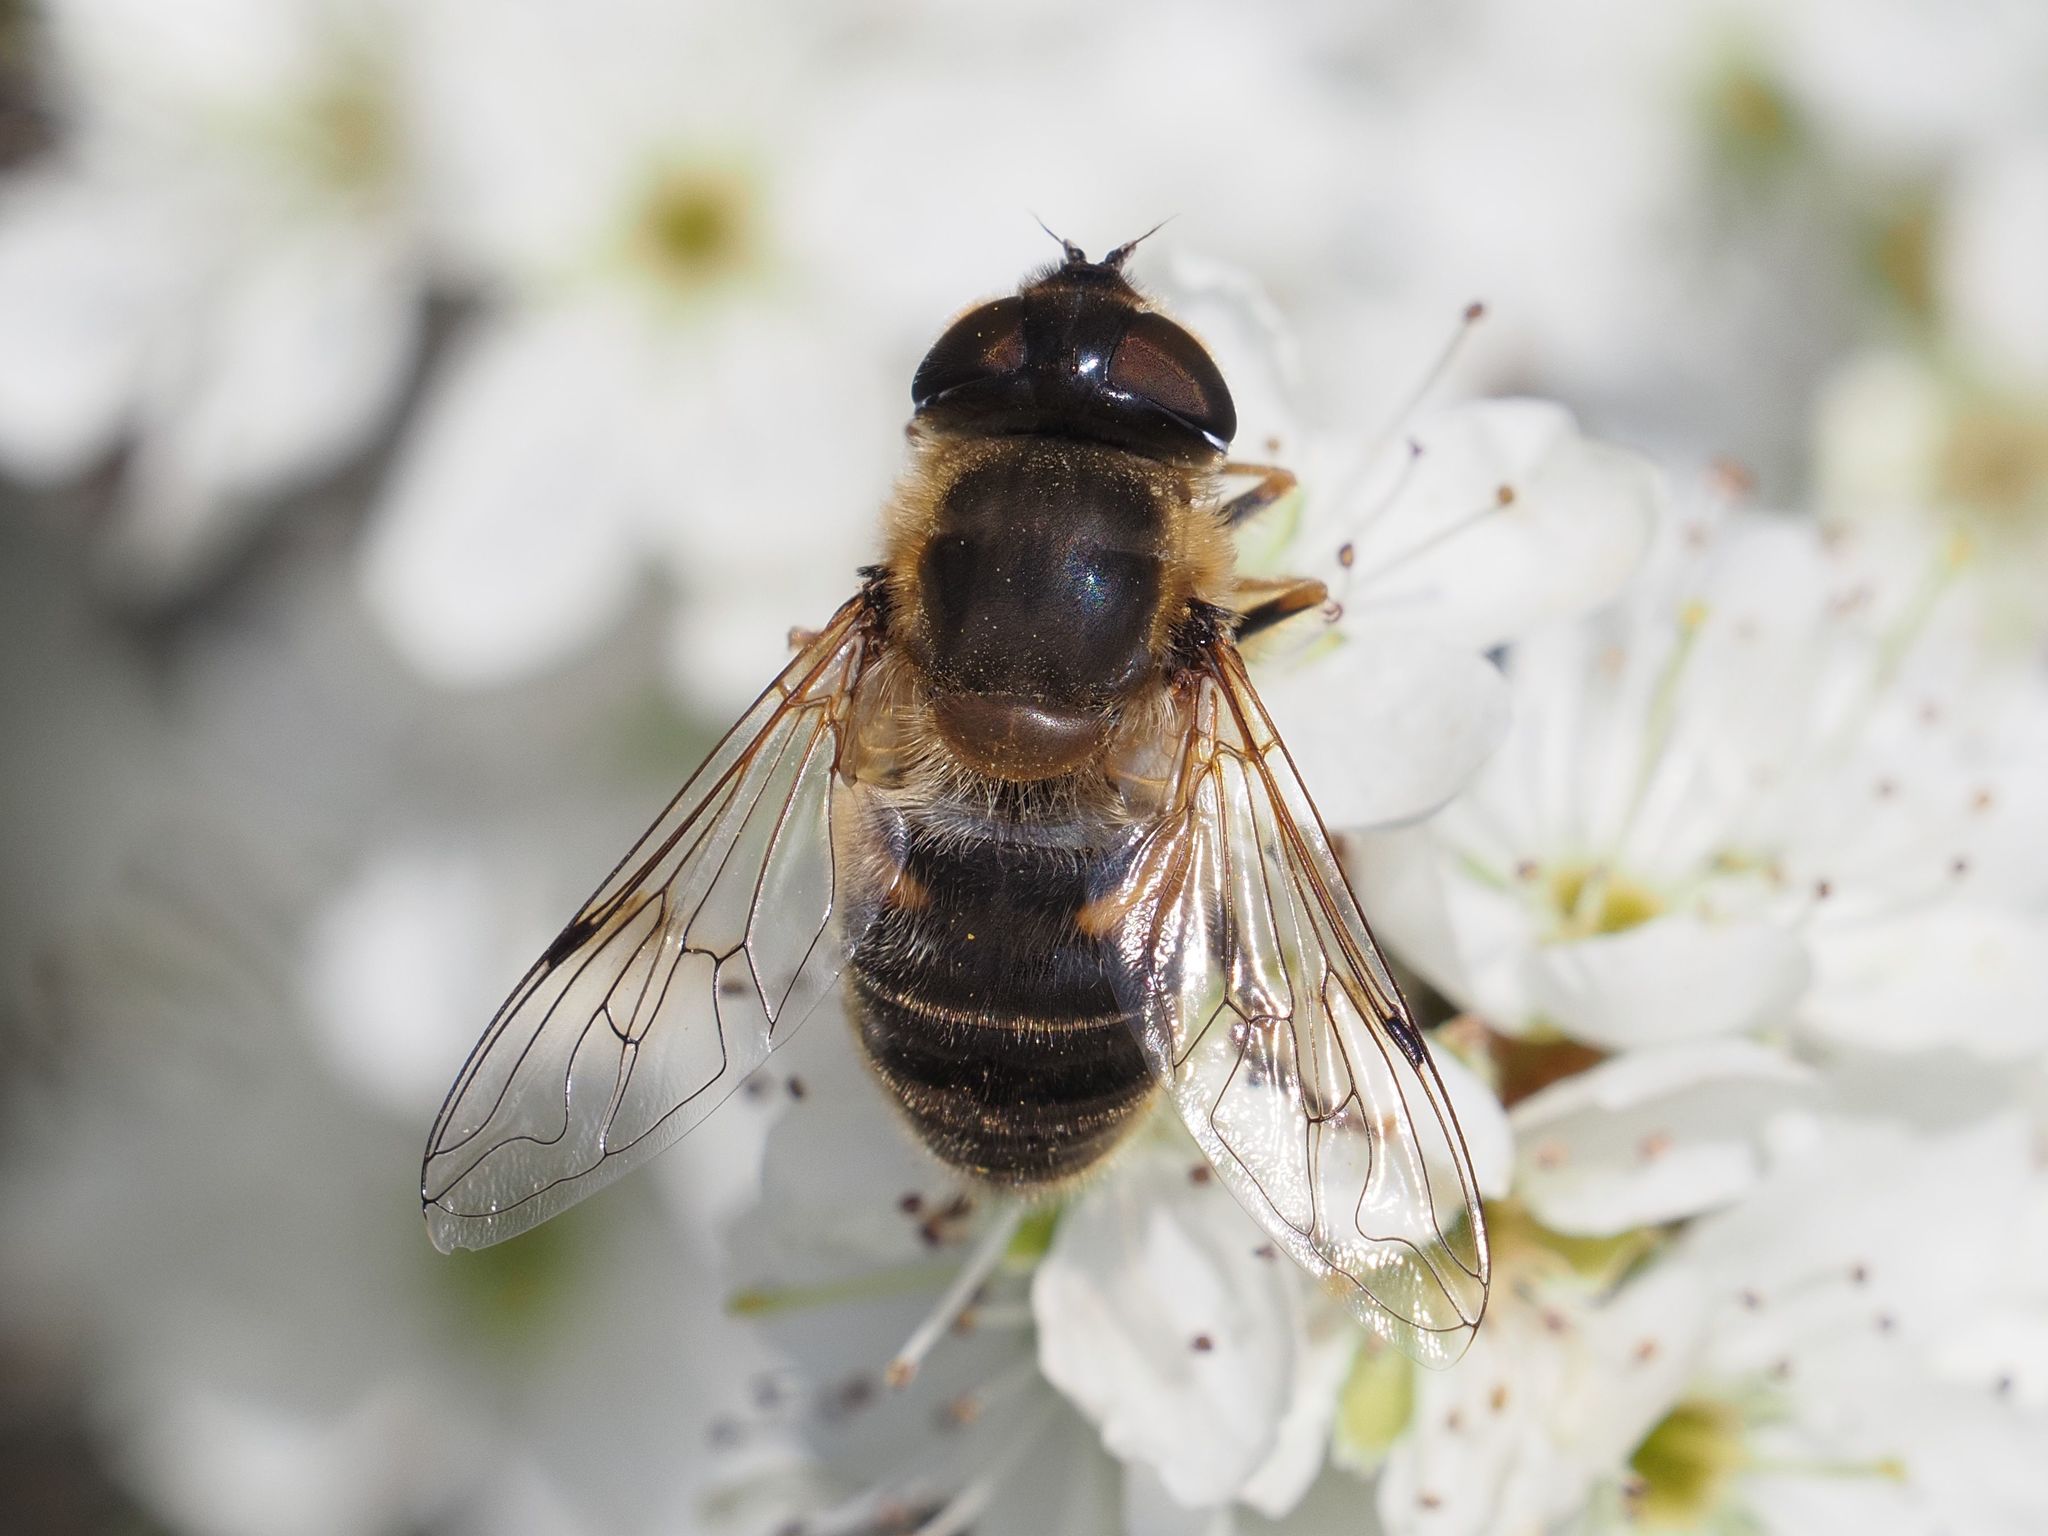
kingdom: Animalia
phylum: Arthropoda
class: Insecta
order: Diptera
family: Syrphidae
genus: Eristalis
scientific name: Eristalis pertinax
